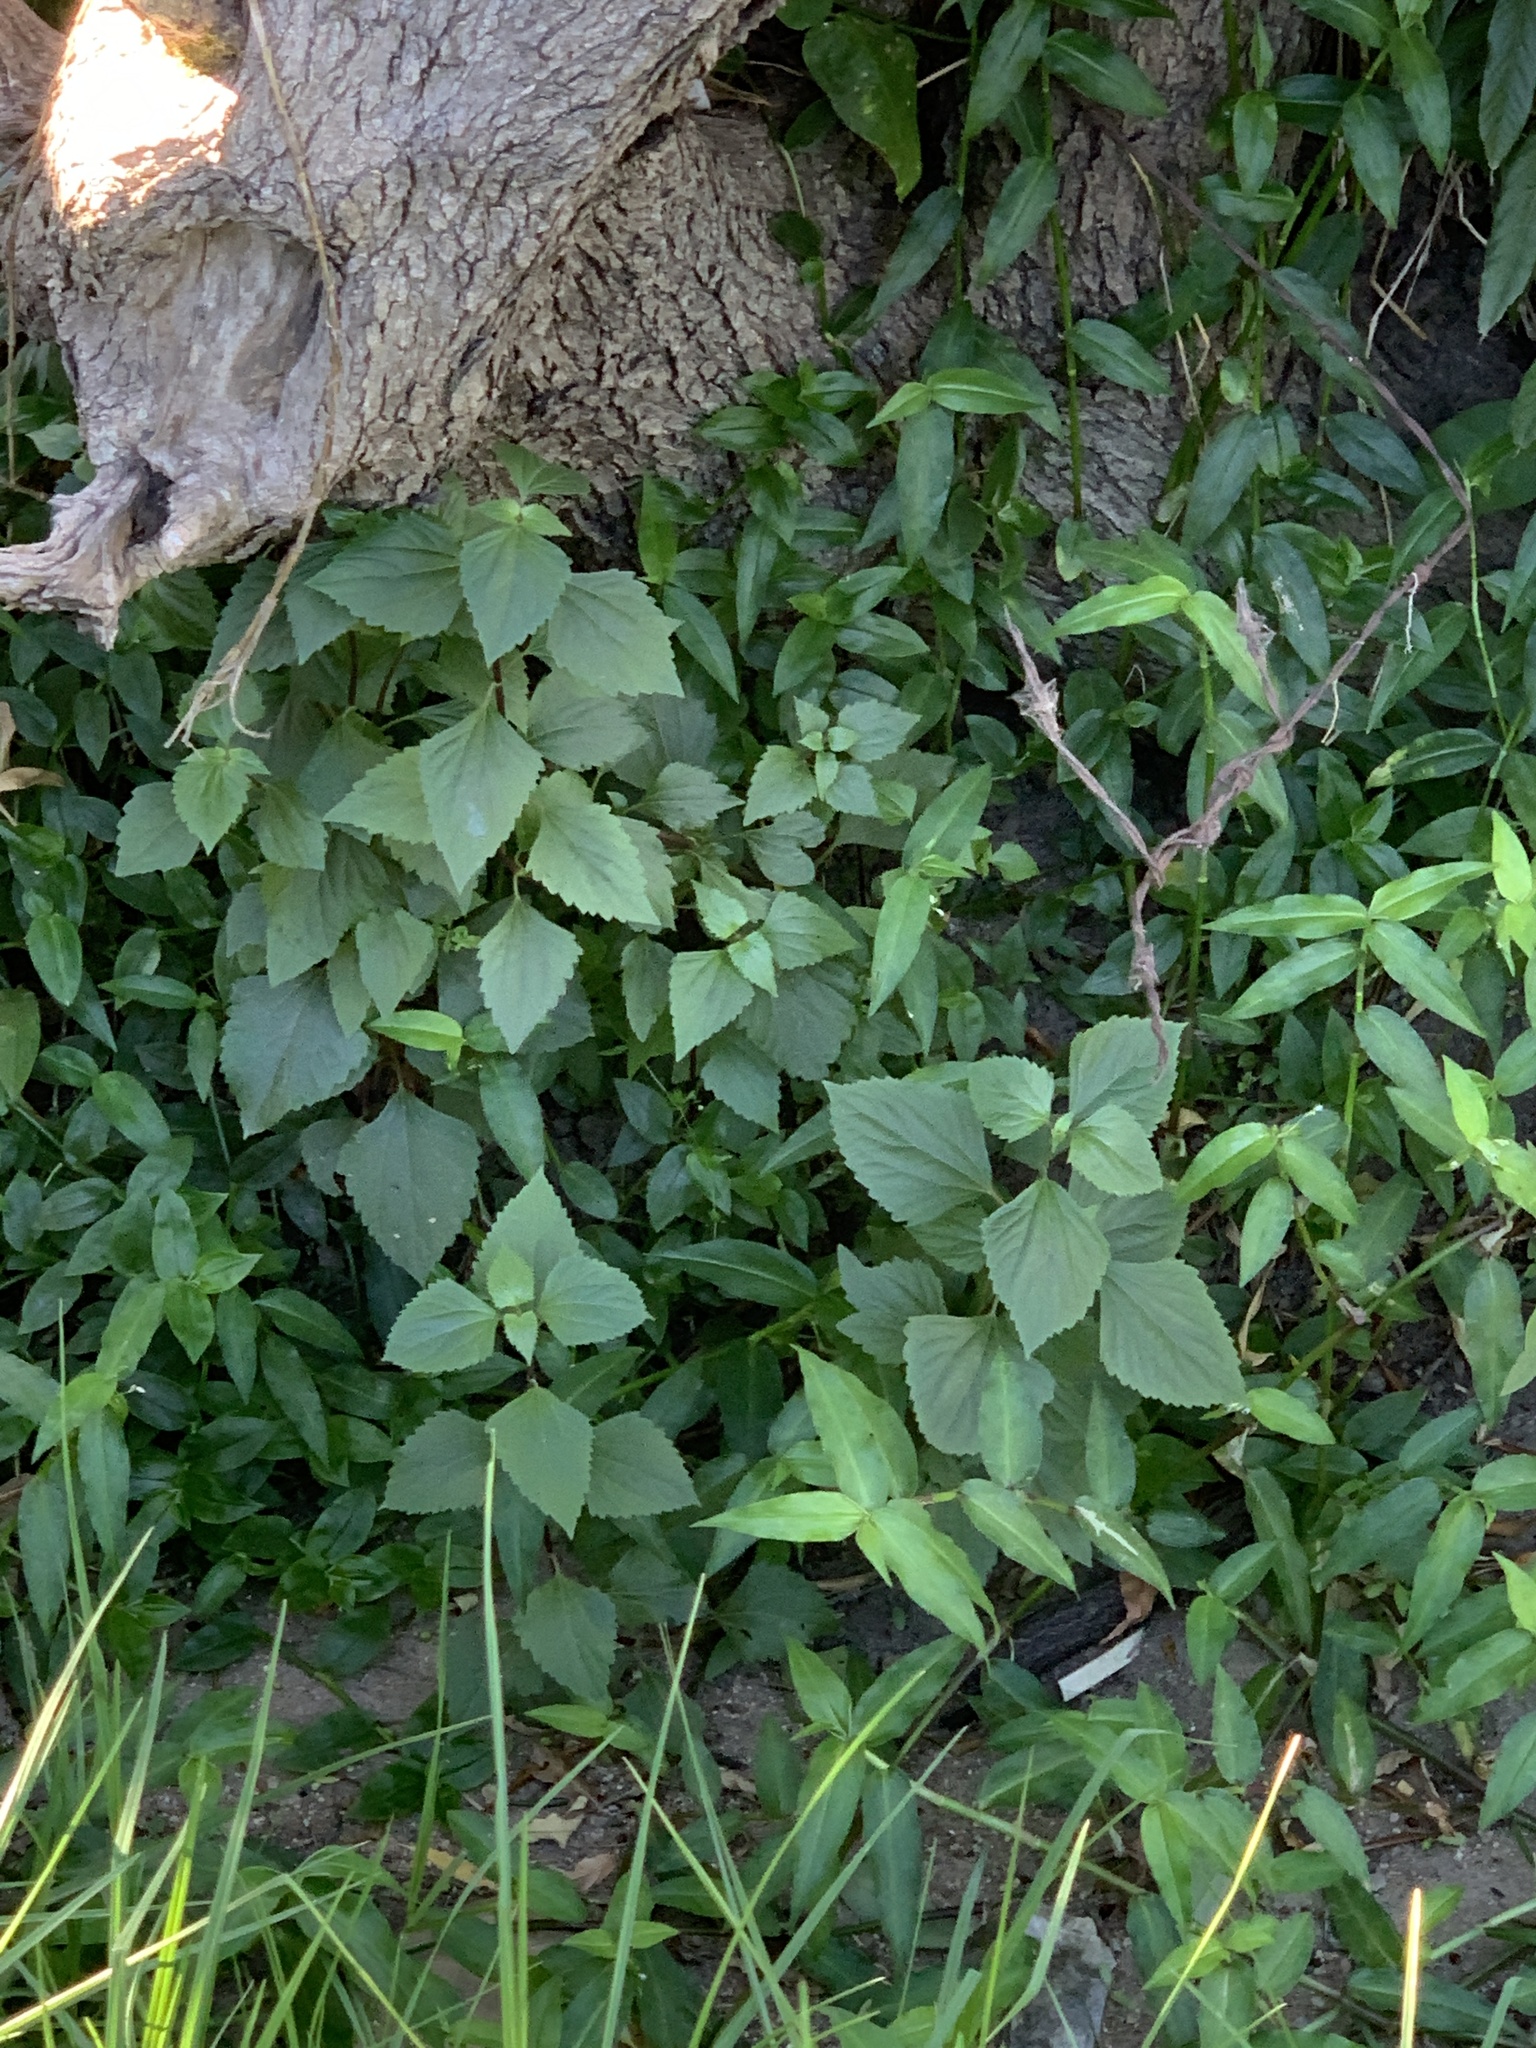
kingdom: Plantae
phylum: Tracheophyta
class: Magnoliopsida
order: Asterales
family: Asteraceae
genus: Ageratina
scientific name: Ageratina adenophora
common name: Sticky snakeroot
